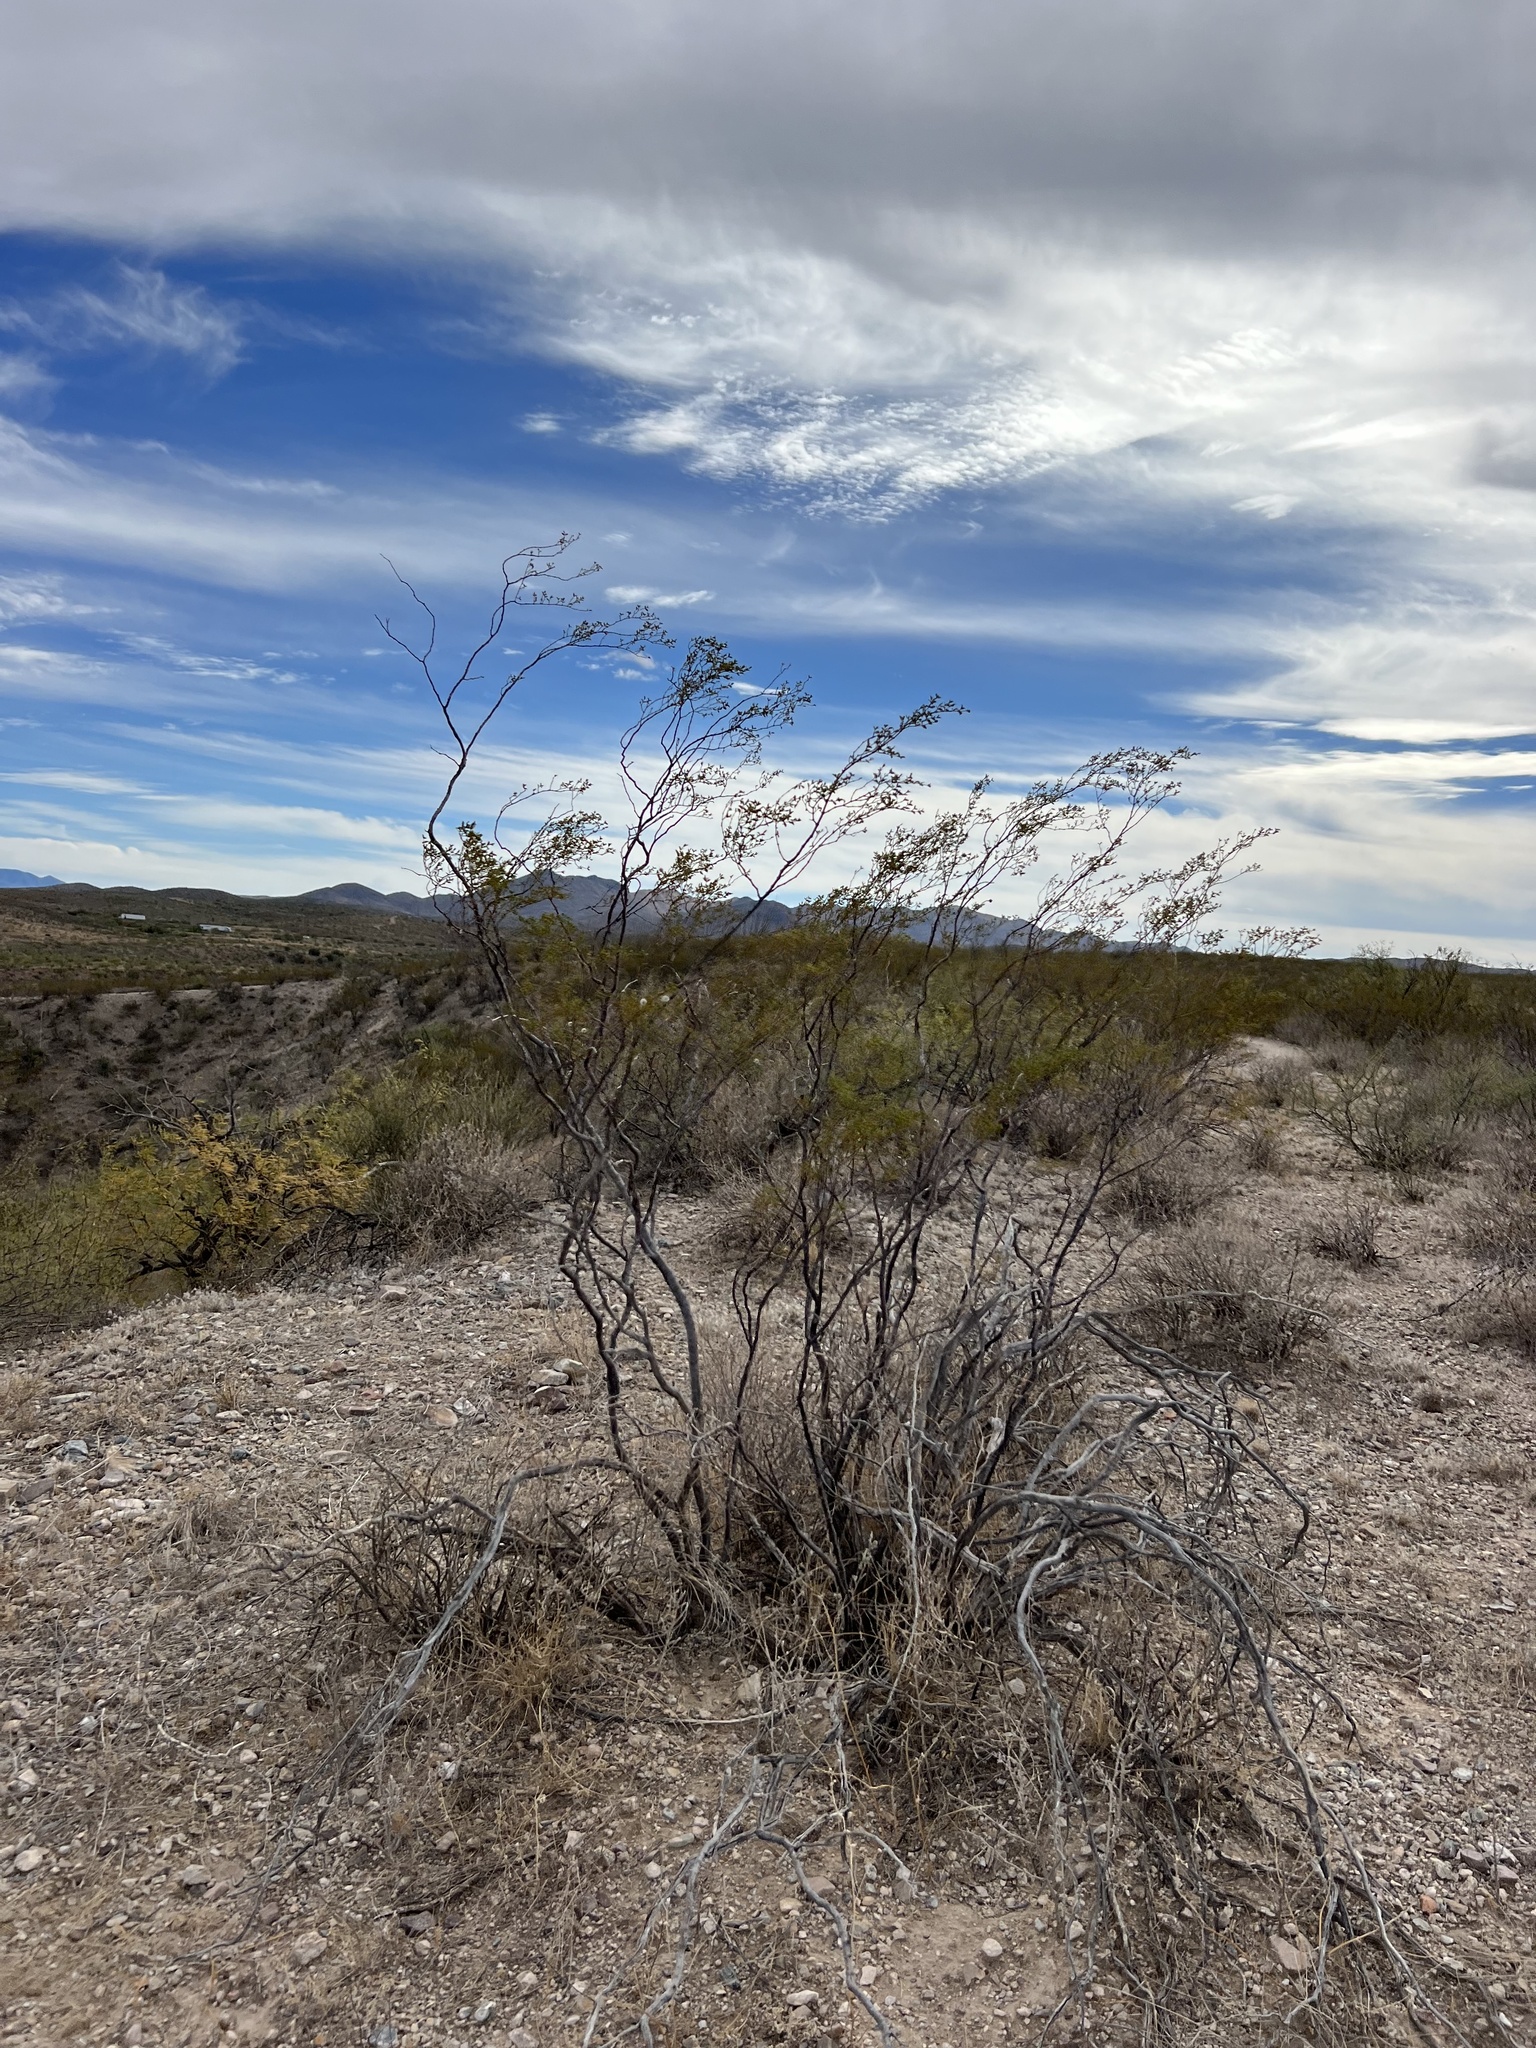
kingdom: Plantae
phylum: Tracheophyta
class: Magnoliopsida
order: Zygophyllales
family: Zygophyllaceae
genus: Larrea
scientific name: Larrea tridentata
